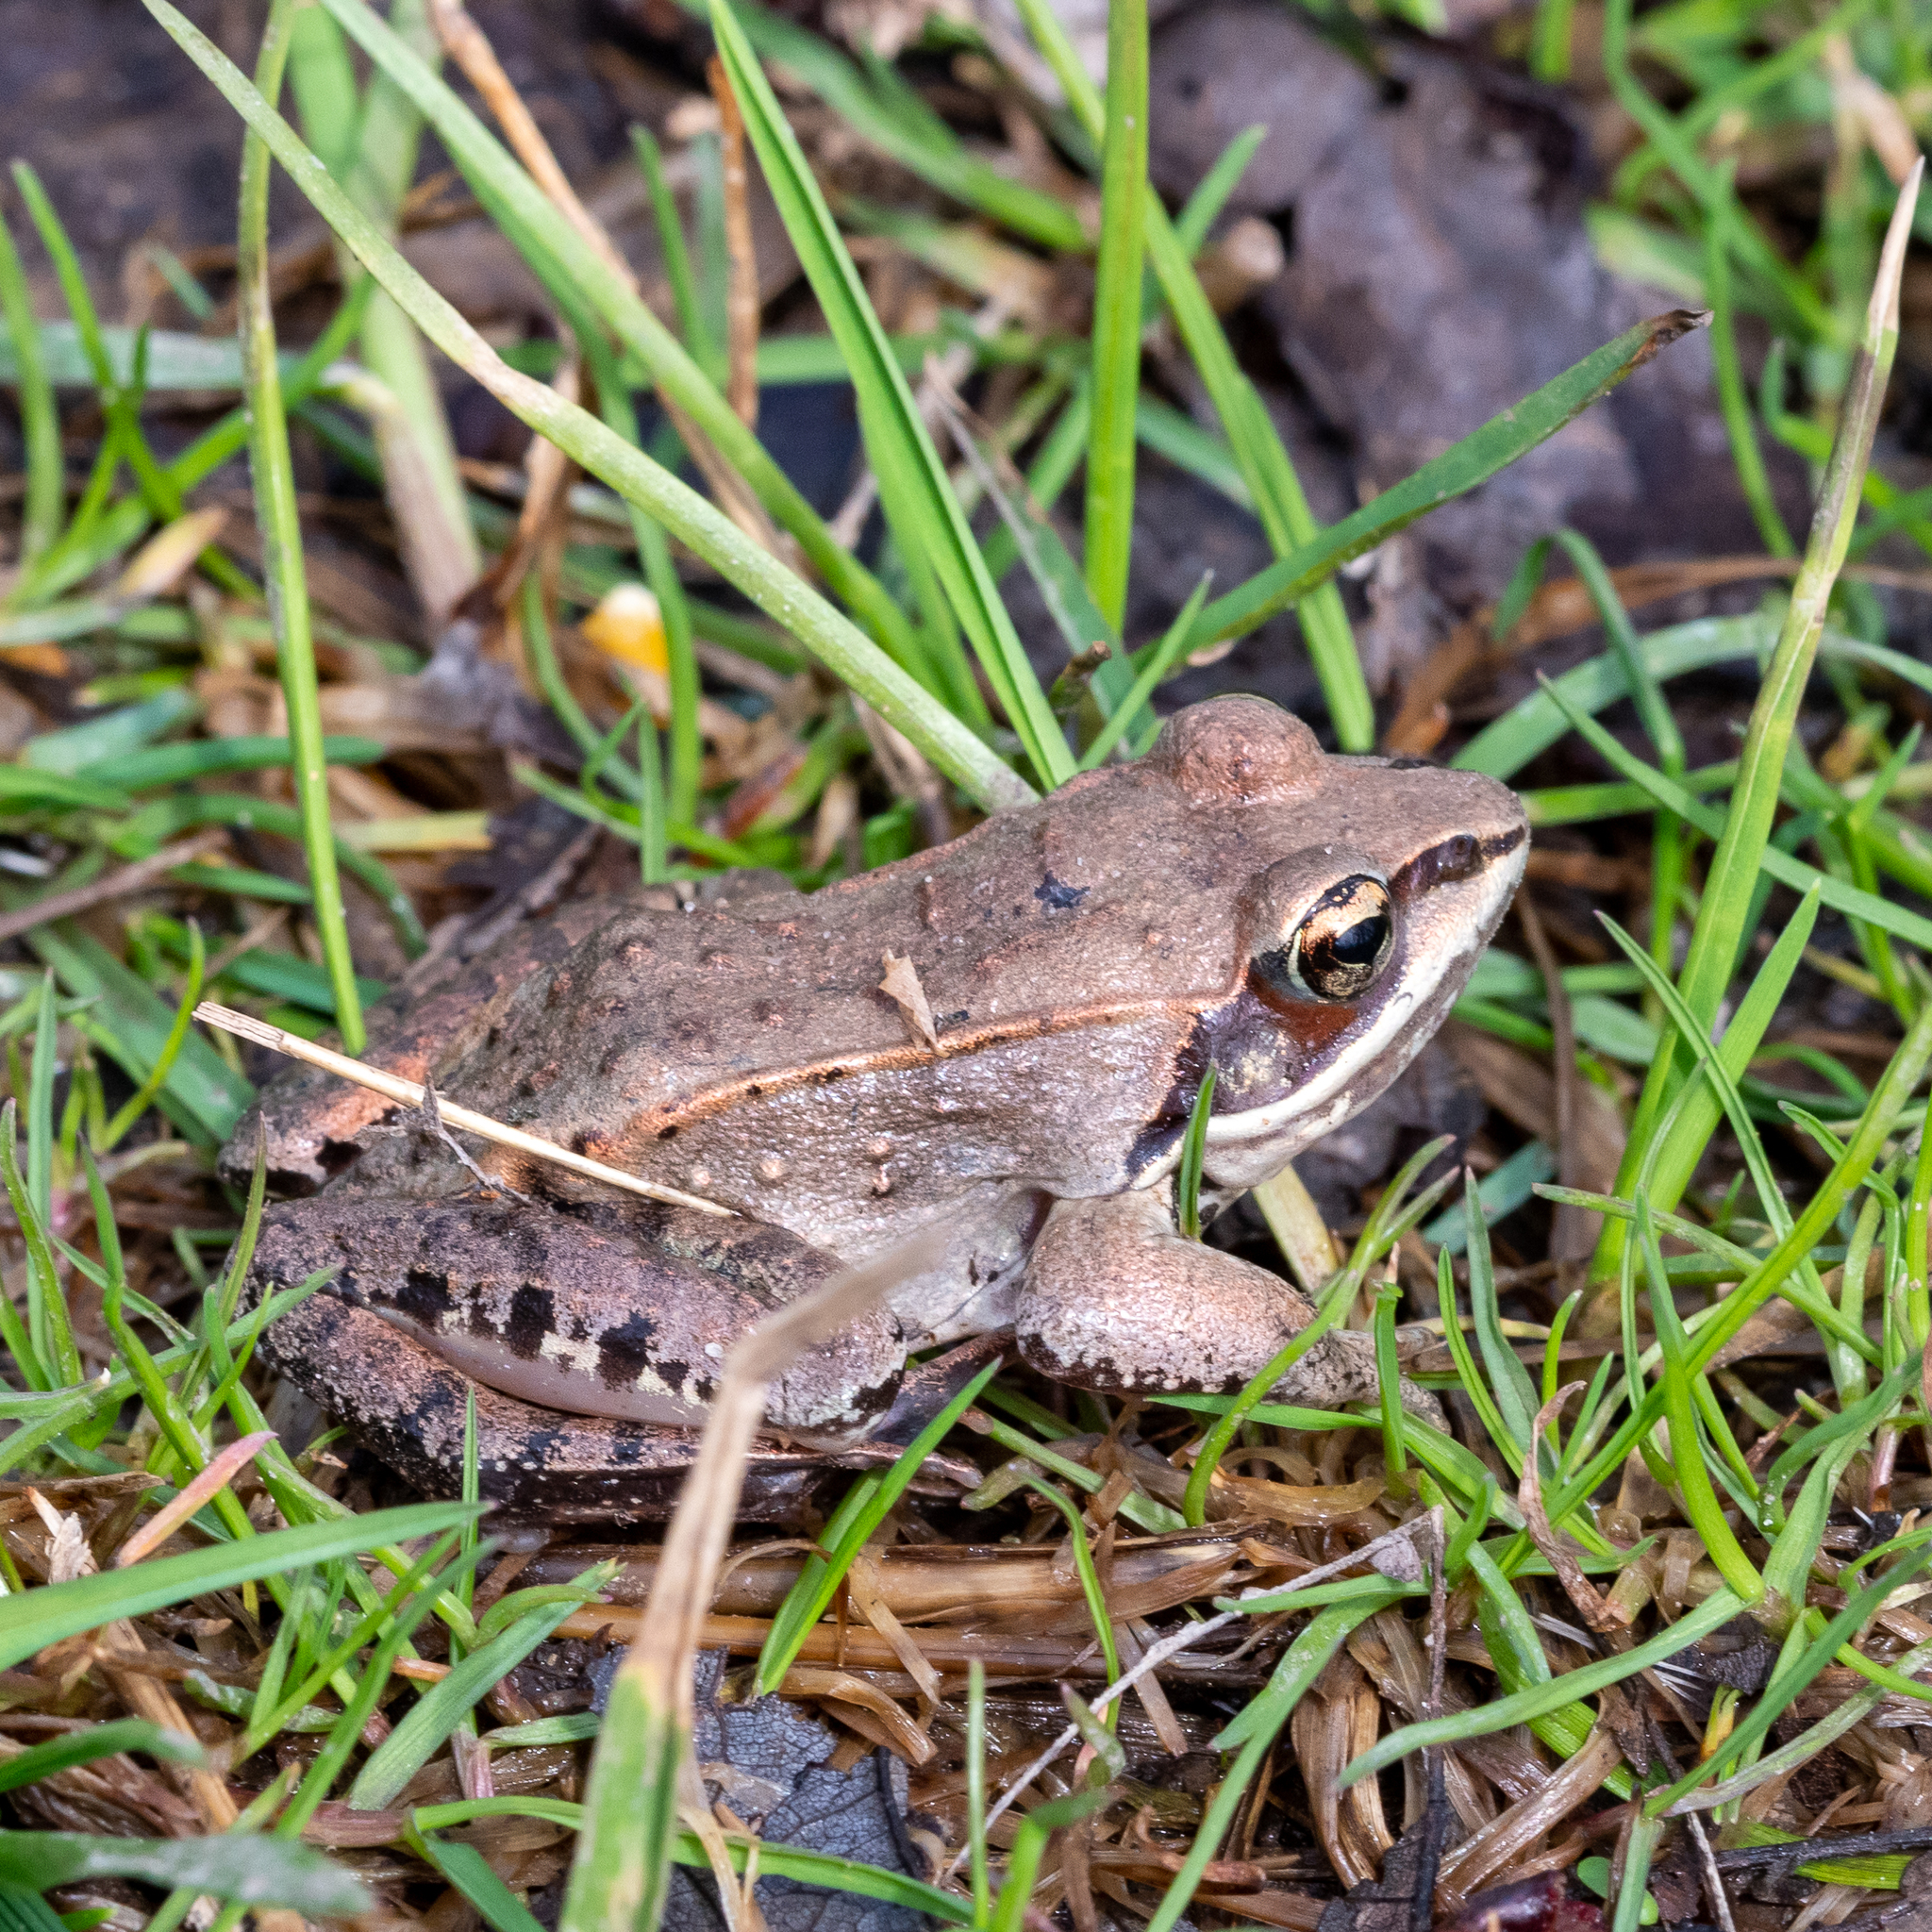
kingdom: Animalia
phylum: Chordata
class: Amphibia
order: Anura
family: Ranidae
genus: Lithobates
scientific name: Lithobates sylvaticus
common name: Wood frog
